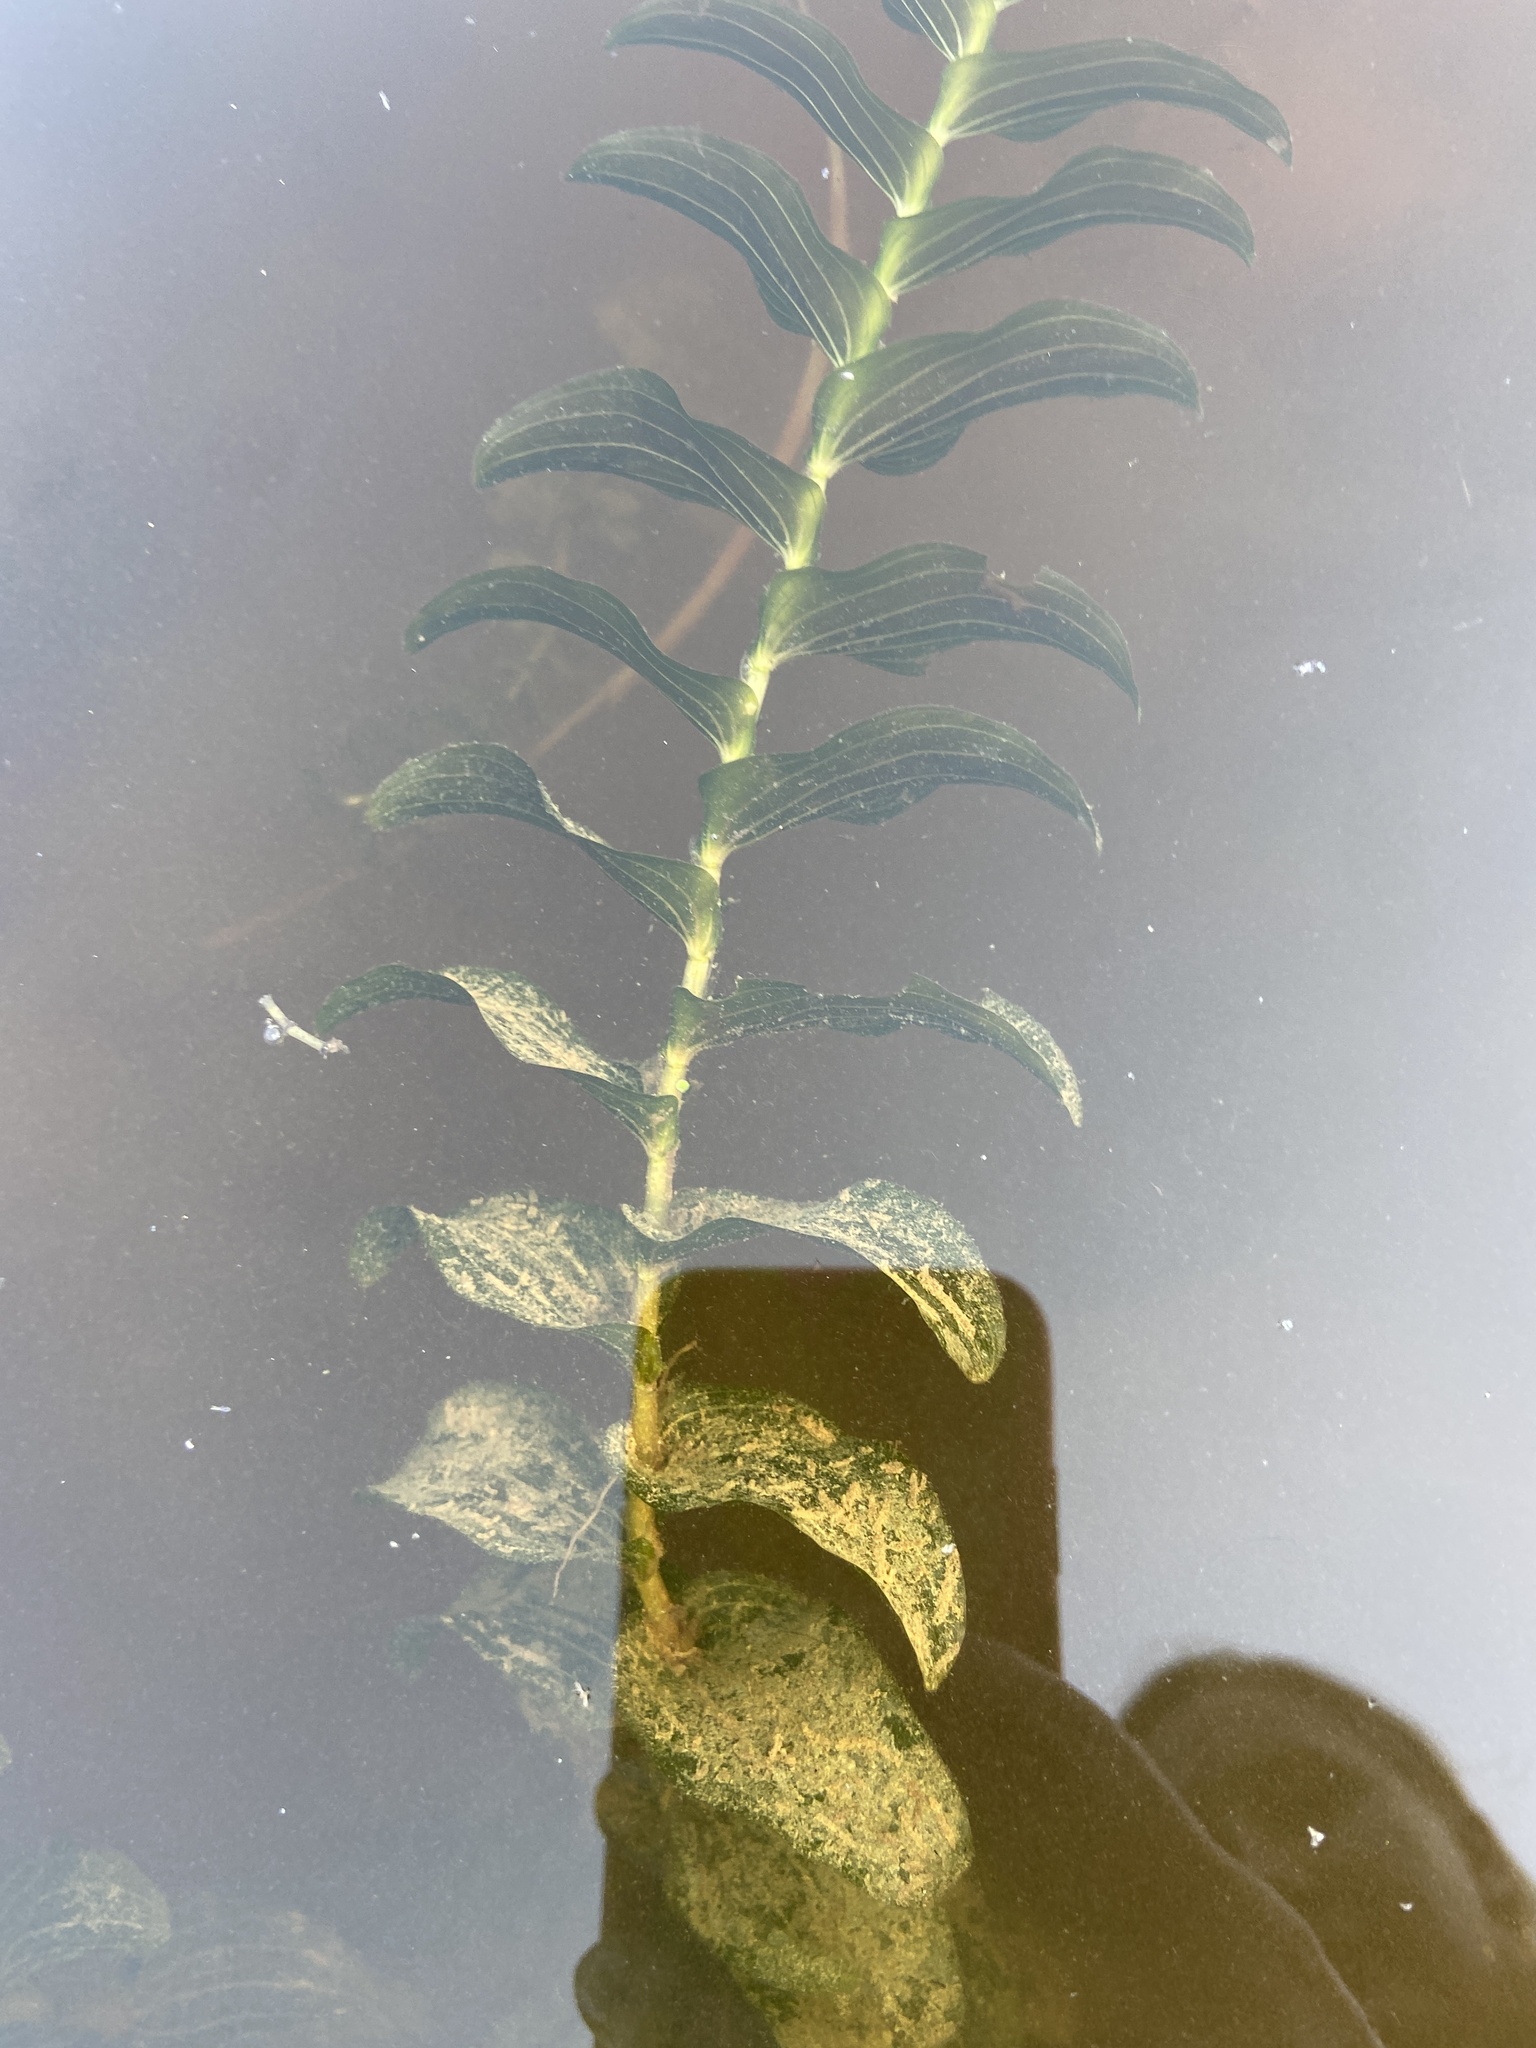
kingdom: Plantae
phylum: Tracheophyta
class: Liliopsida
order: Alismatales
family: Hydrocharitaceae
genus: Elodea
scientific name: Elodea canadensis
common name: Canadian waterweed
